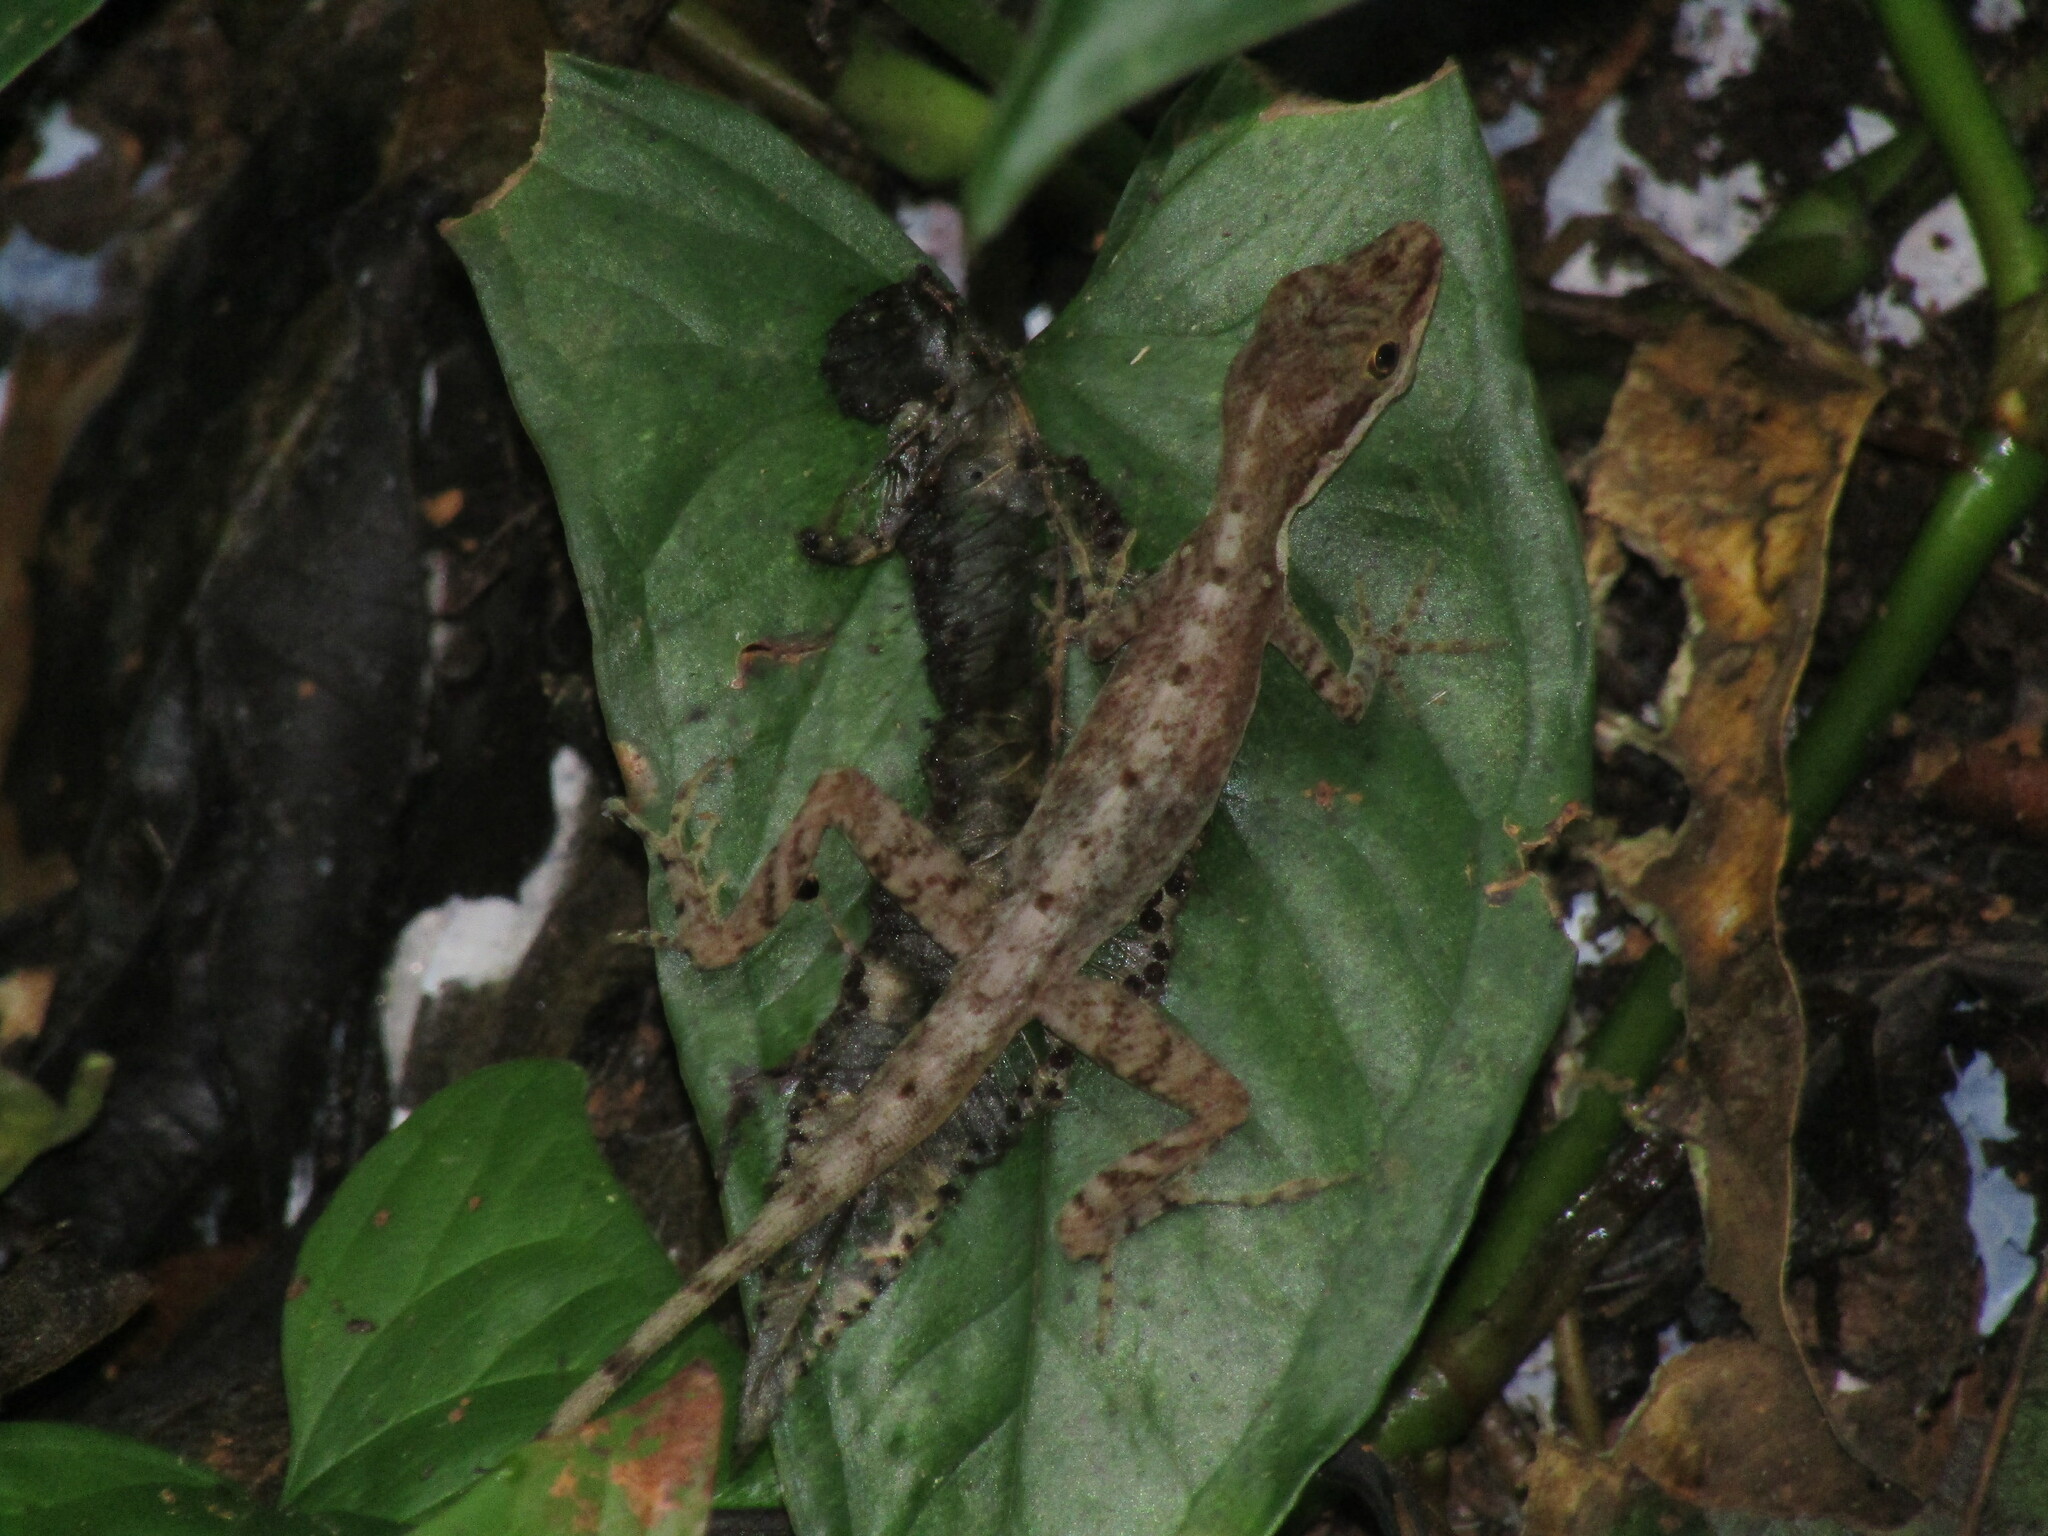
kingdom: Animalia
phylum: Chordata
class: Squamata
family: Dactyloidae
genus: Anolis
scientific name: Anolis apletophallus
